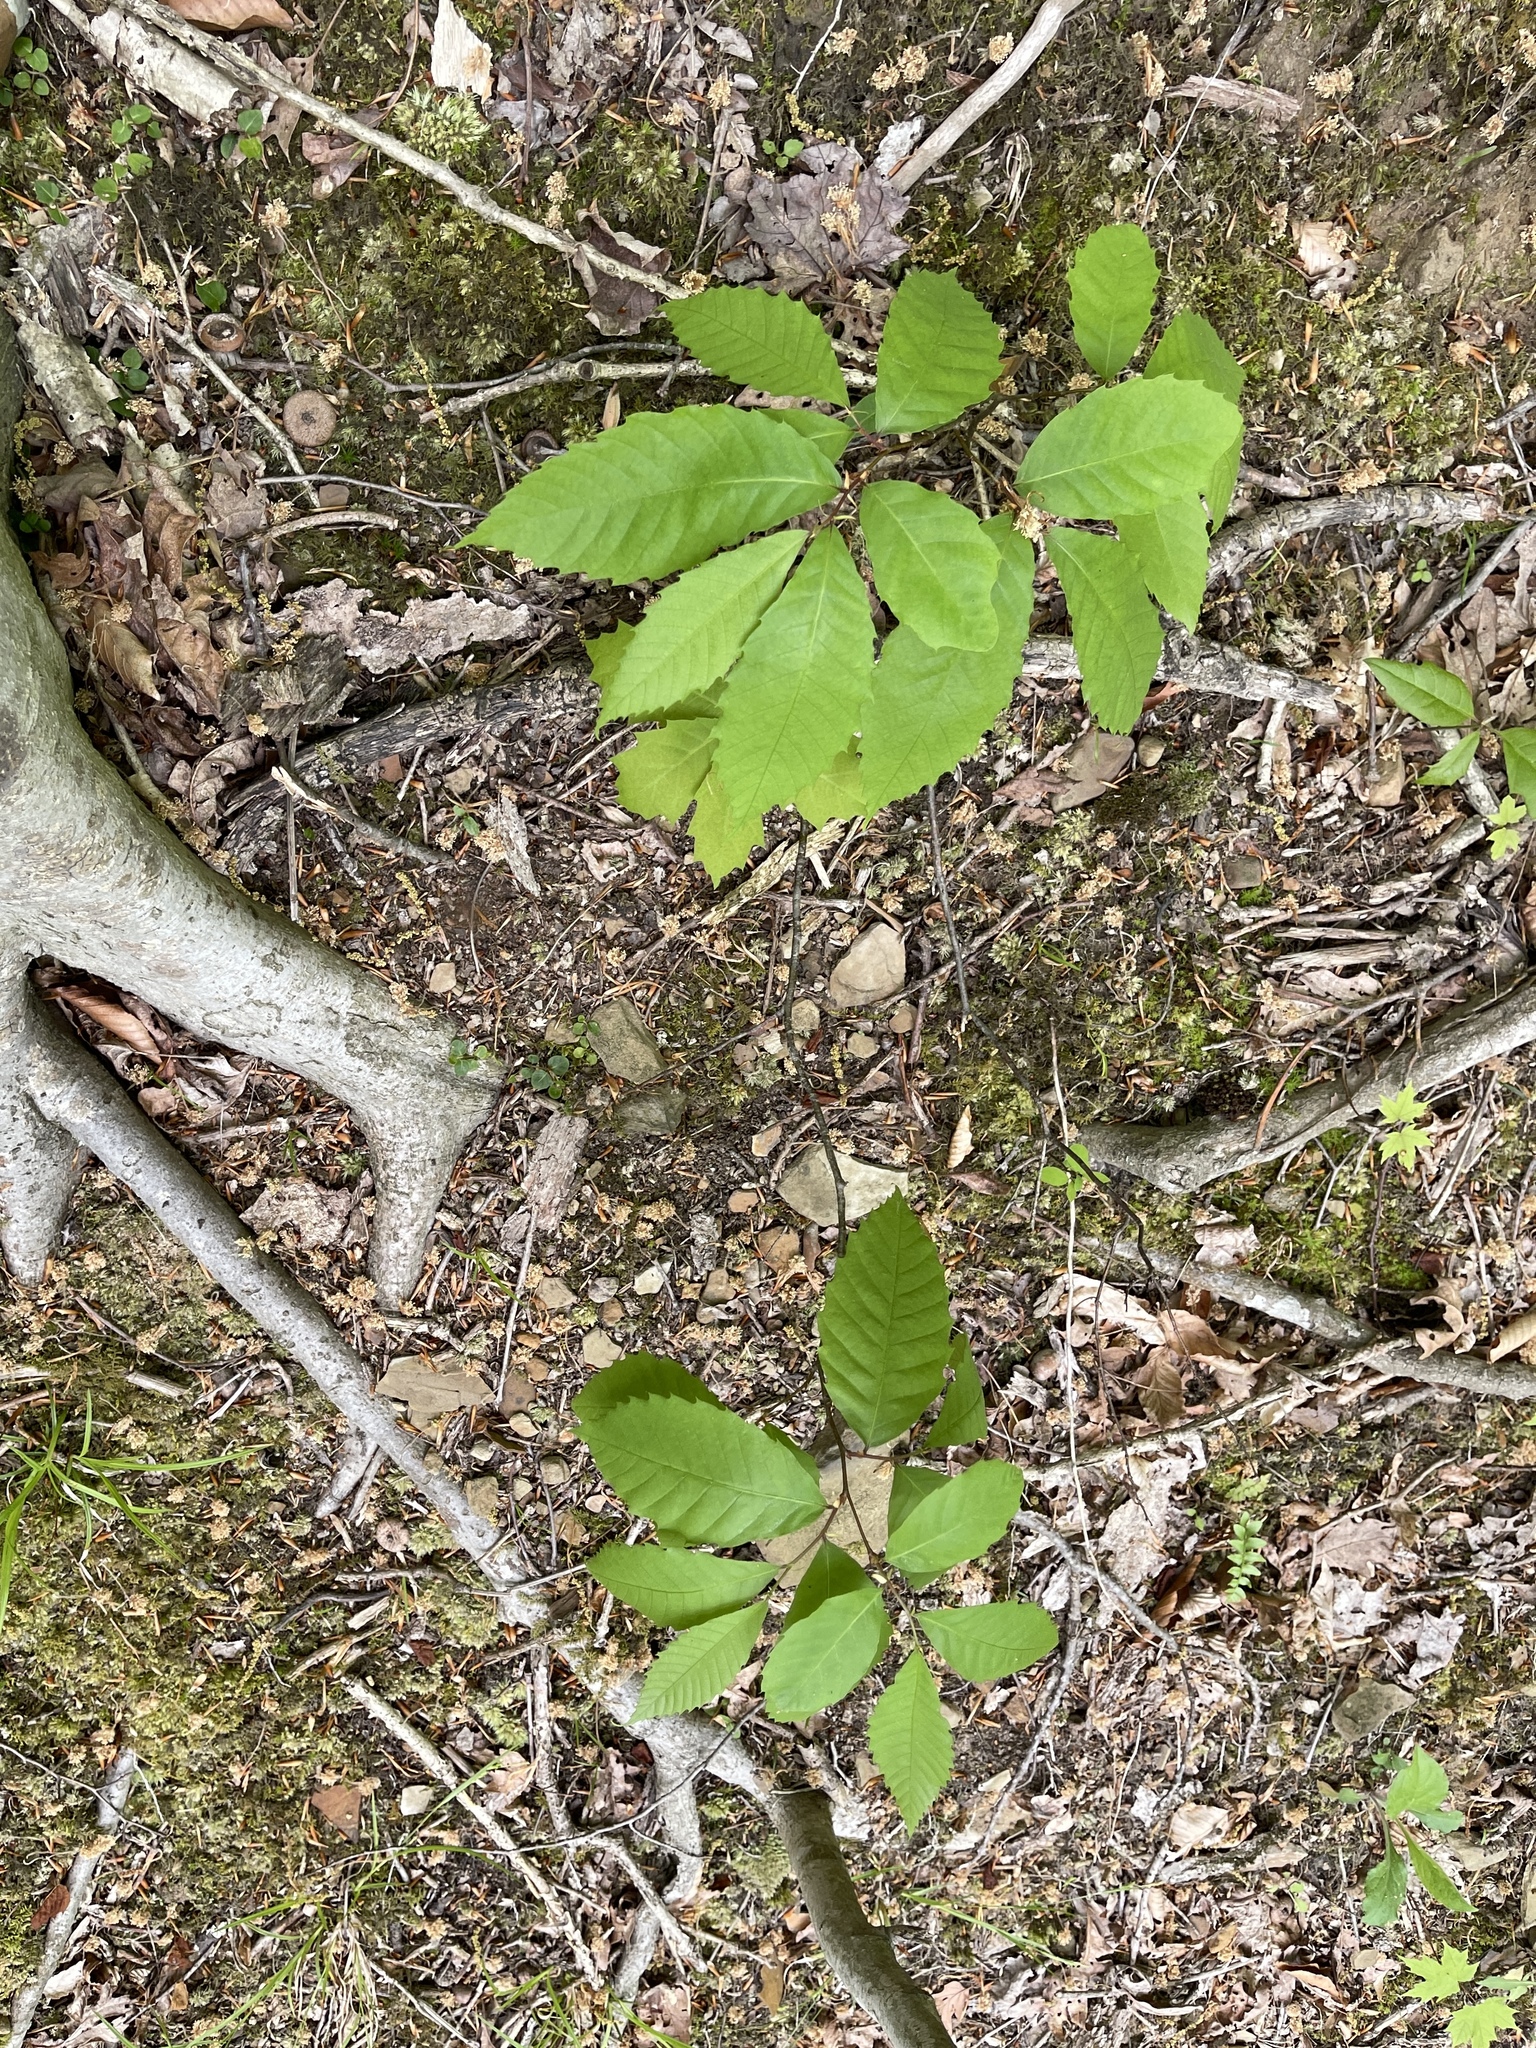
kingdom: Plantae
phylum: Tracheophyta
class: Magnoliopsida
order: Fagales
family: Fagaceae
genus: Castanea
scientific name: Castanea dentata
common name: American chestnut
